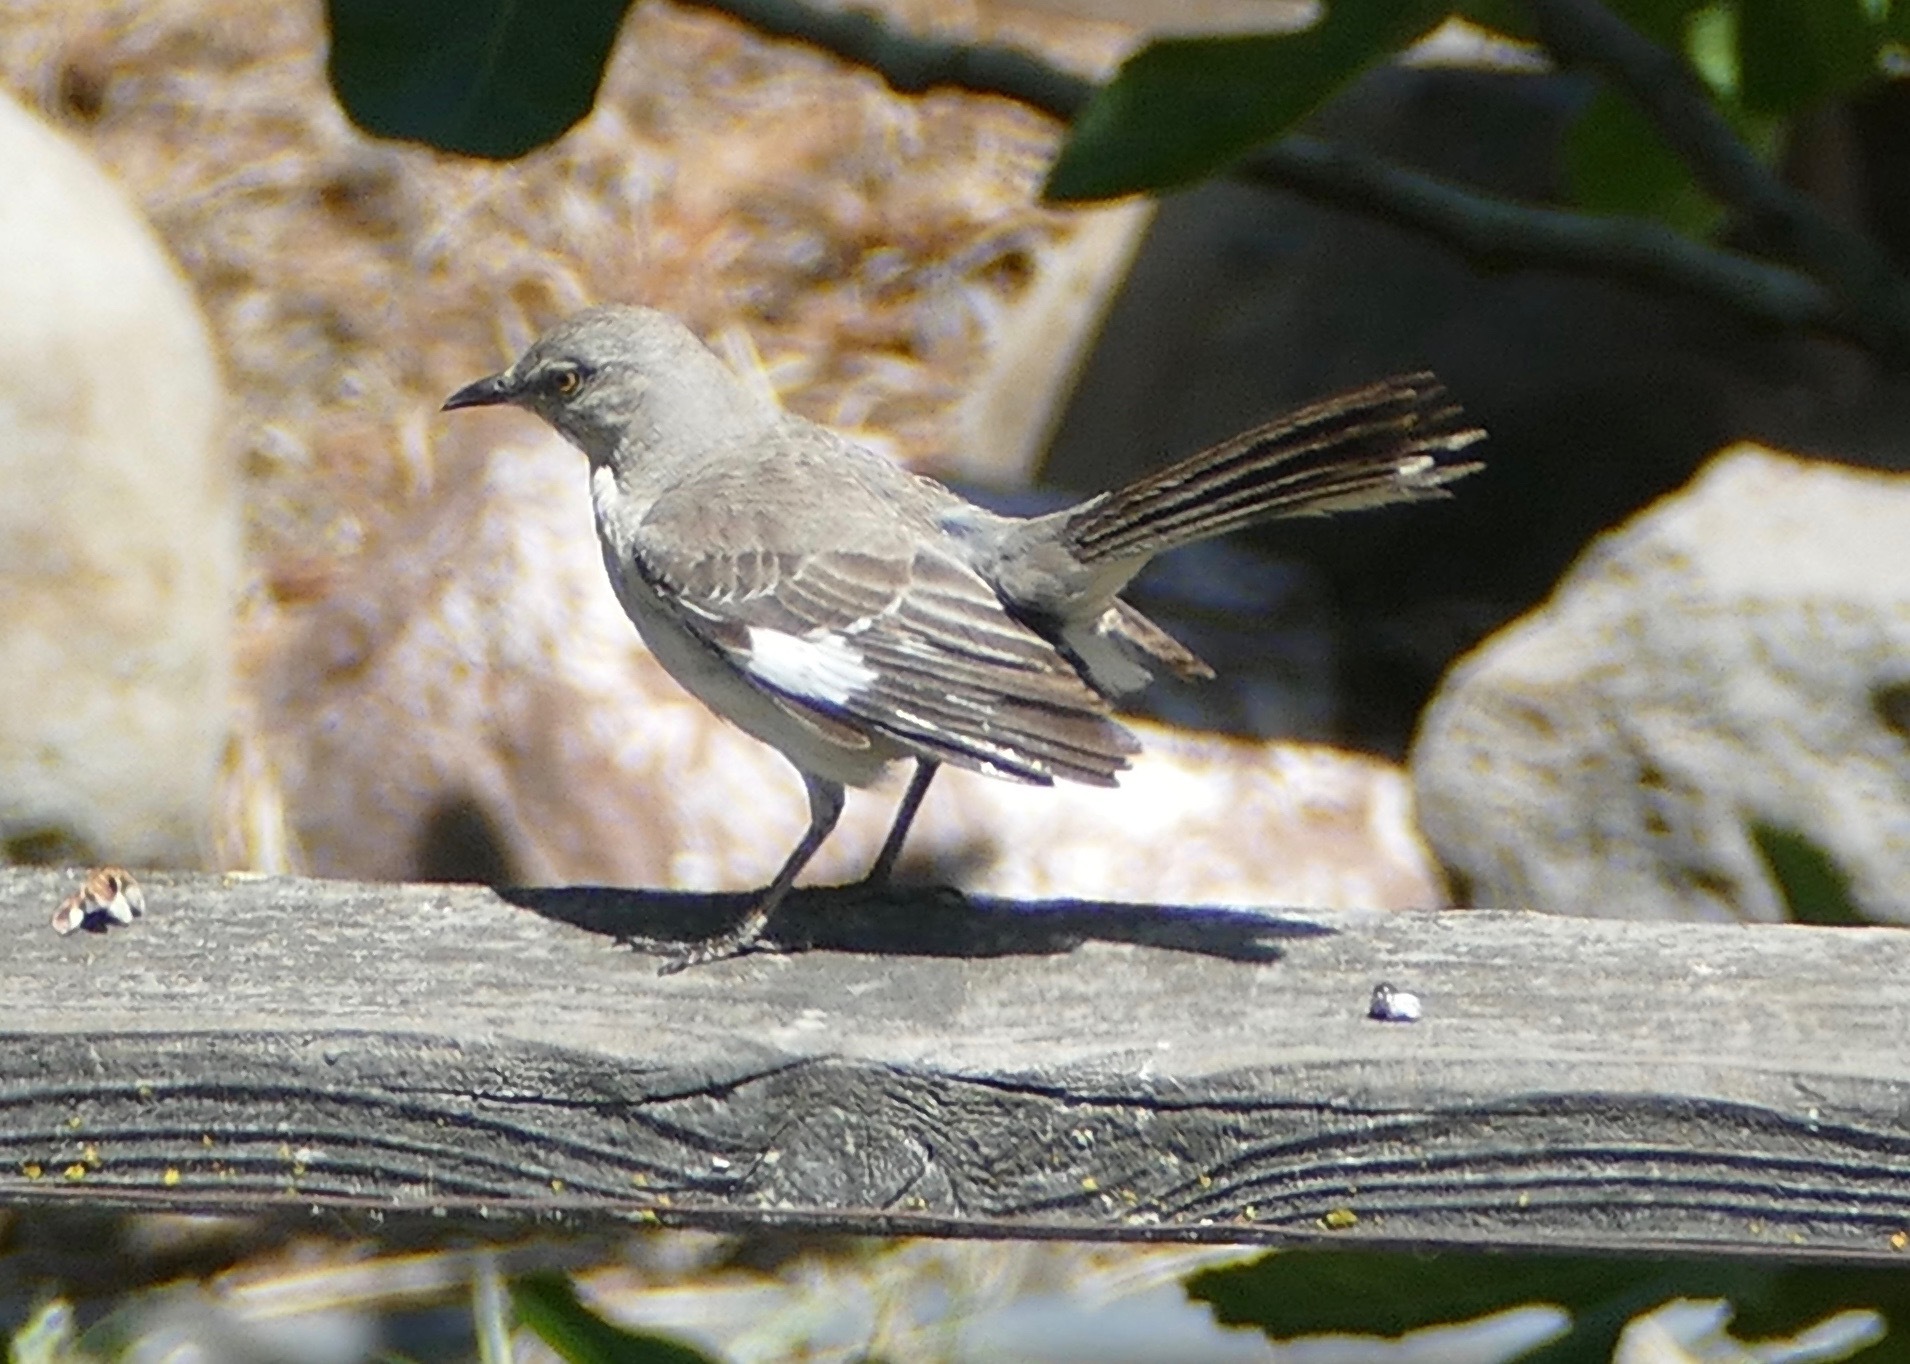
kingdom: Animalia
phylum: Chordata
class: Aves
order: Passeriformes
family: Mimidae
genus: Mimus
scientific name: Mimus polyglottos
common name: Northern mockingbird
